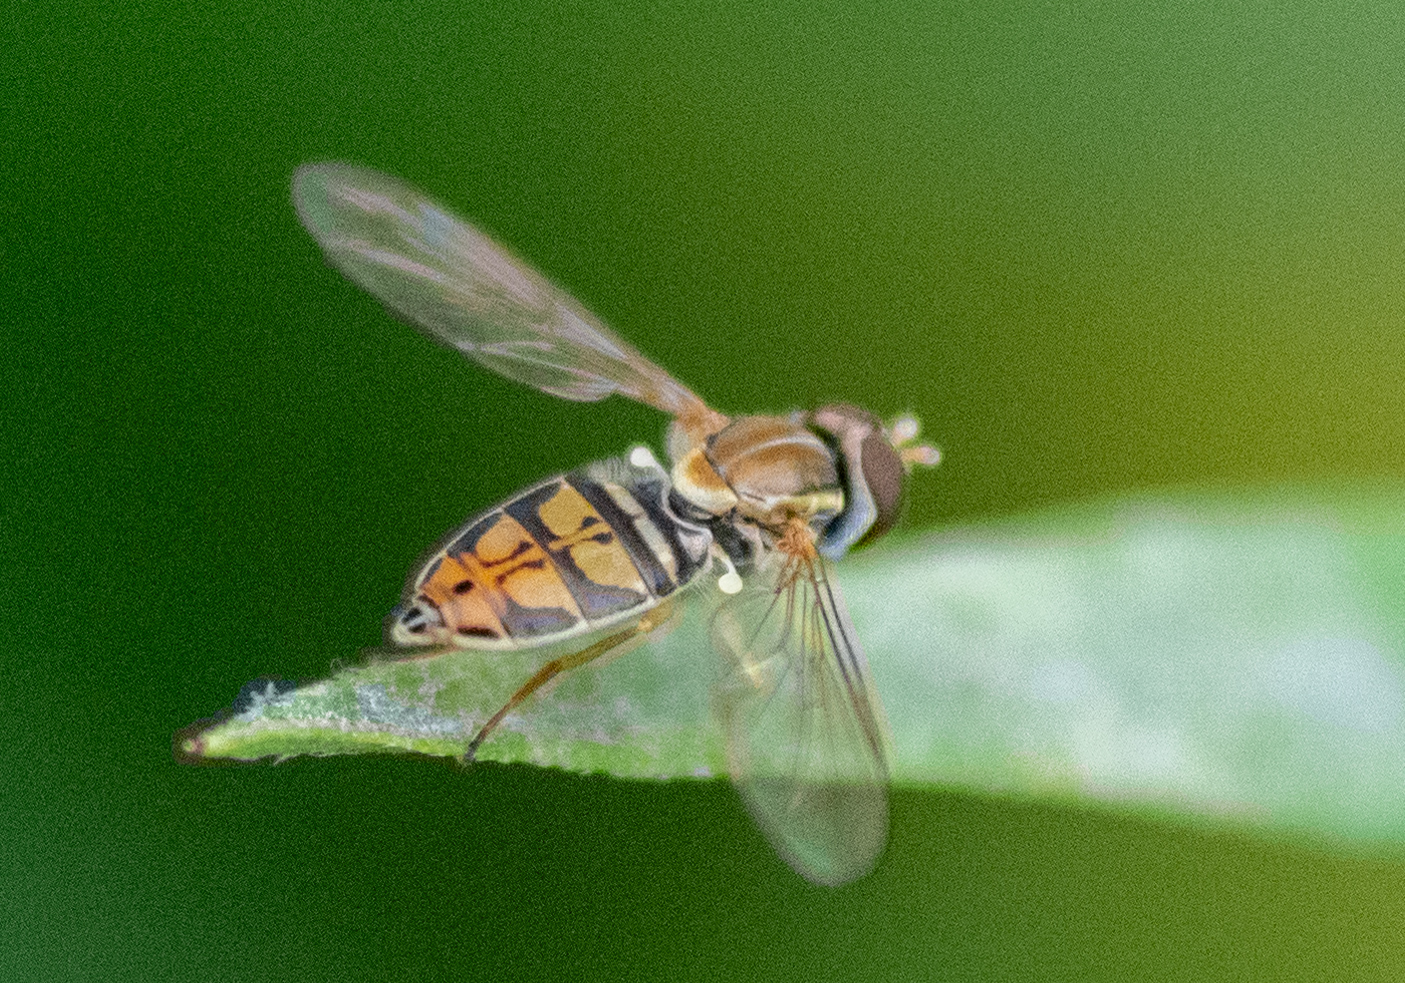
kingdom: Animalia
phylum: Arthropoda
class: Insecta
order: Diptera
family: Syrphidae
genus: Toxomerus
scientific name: Toxomerus marginatus
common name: Syrphid fly
